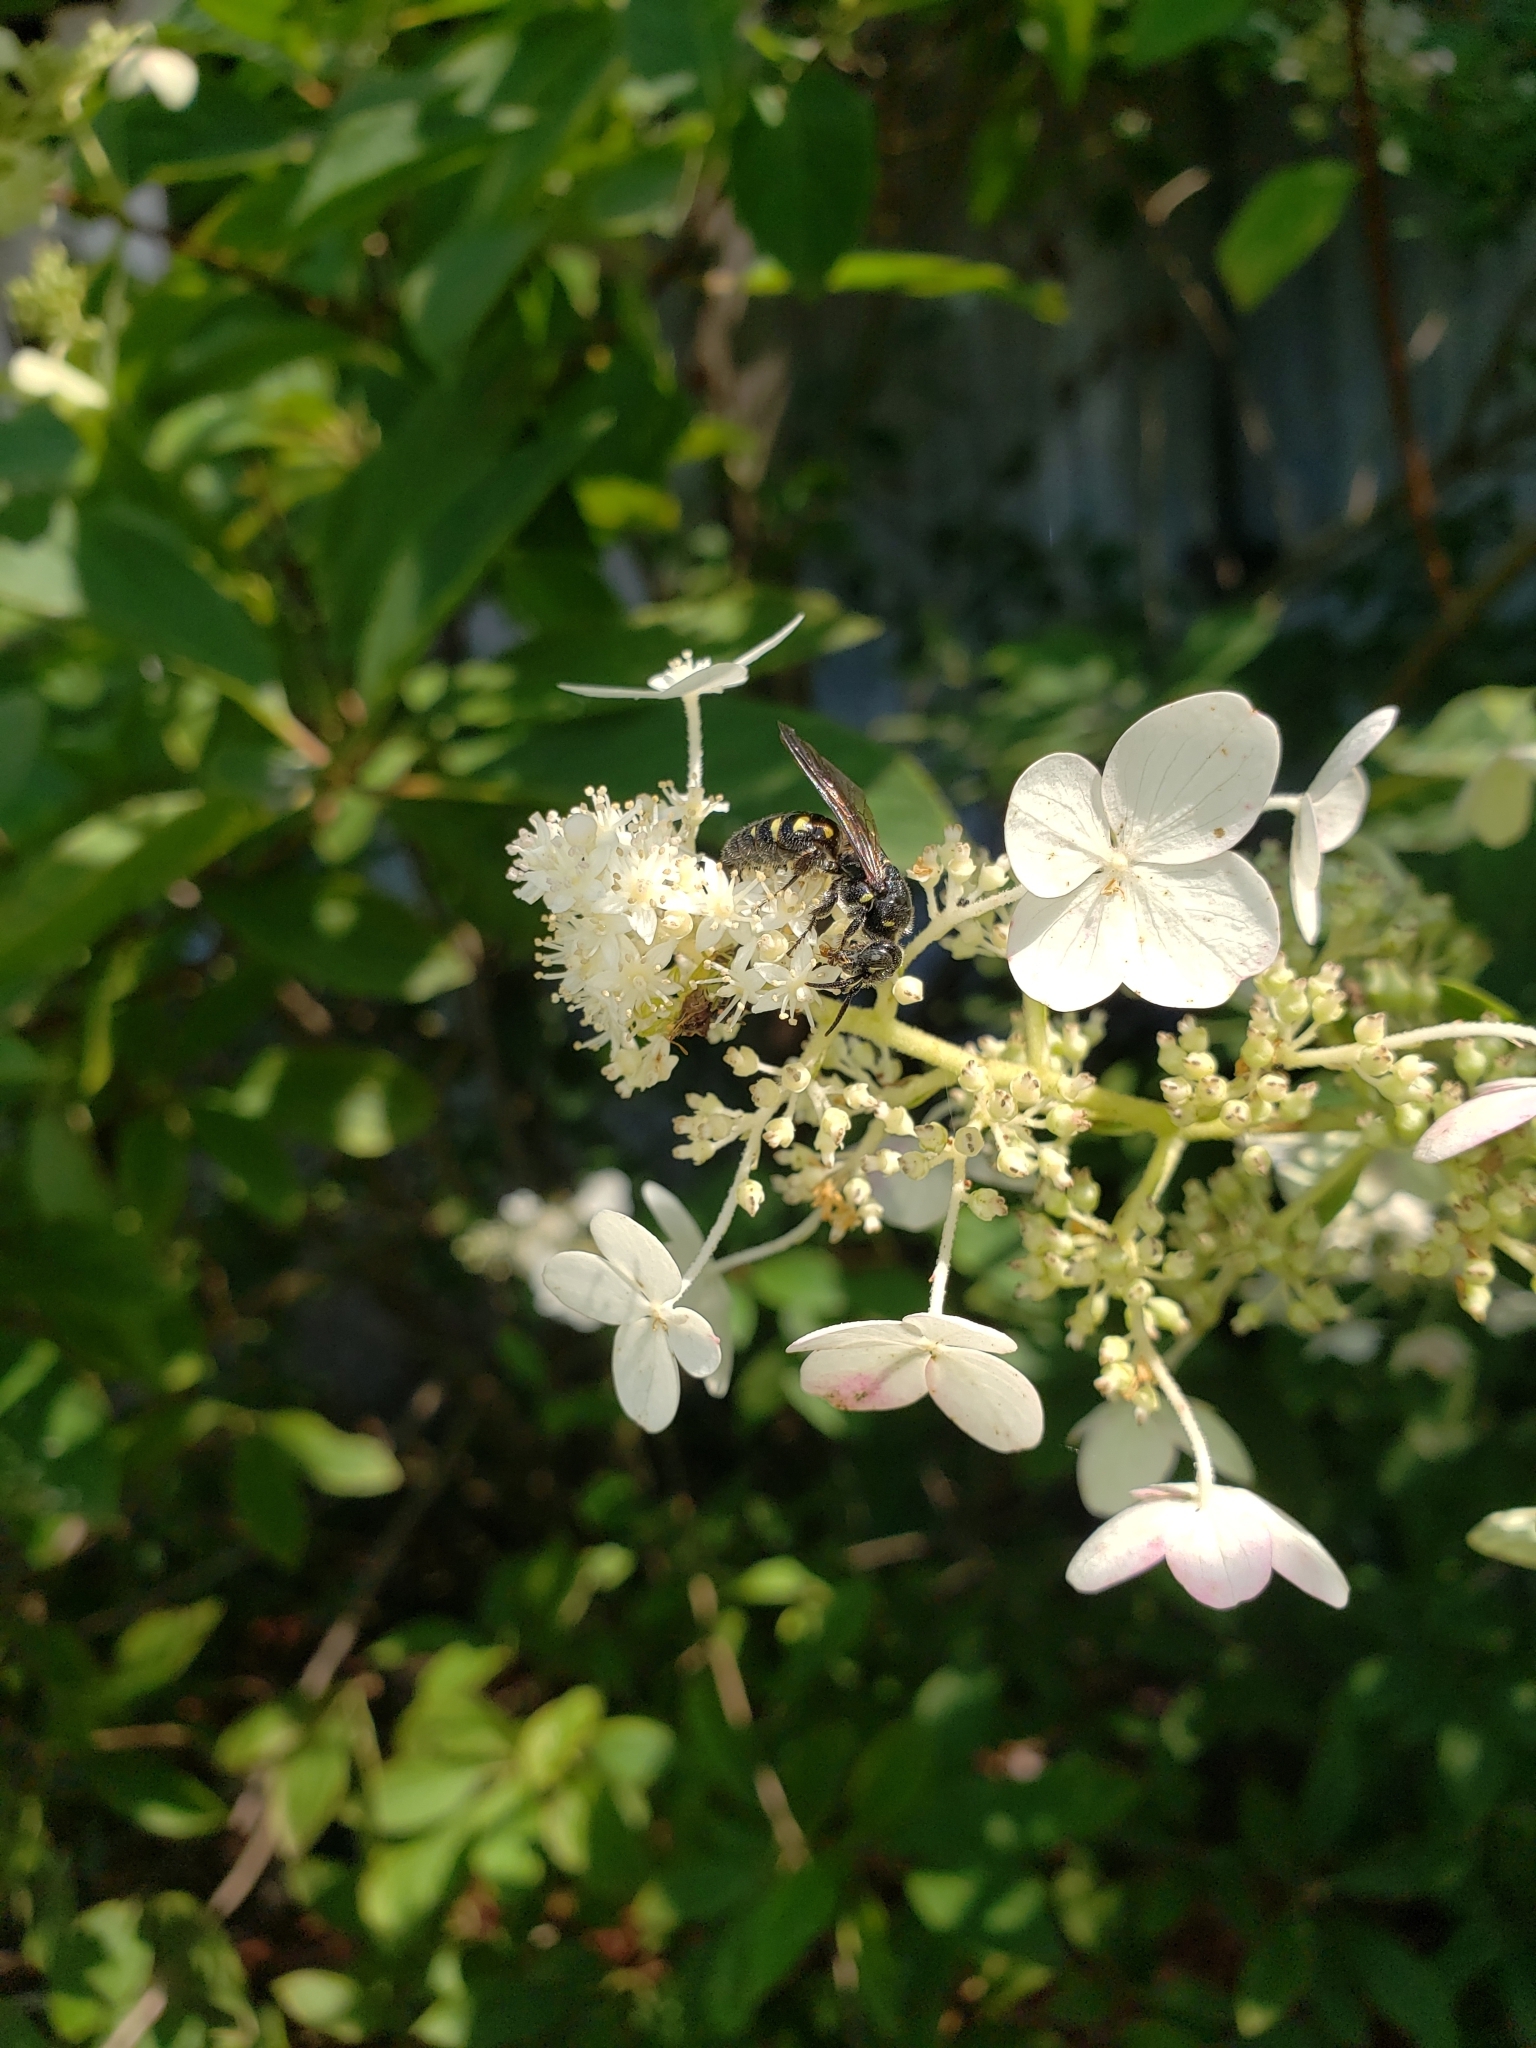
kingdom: Animalia
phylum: Arthropoda
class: Insecta
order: Hymenoptera
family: Tiphiidae
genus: Myzinum
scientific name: Myzinum obscurum
